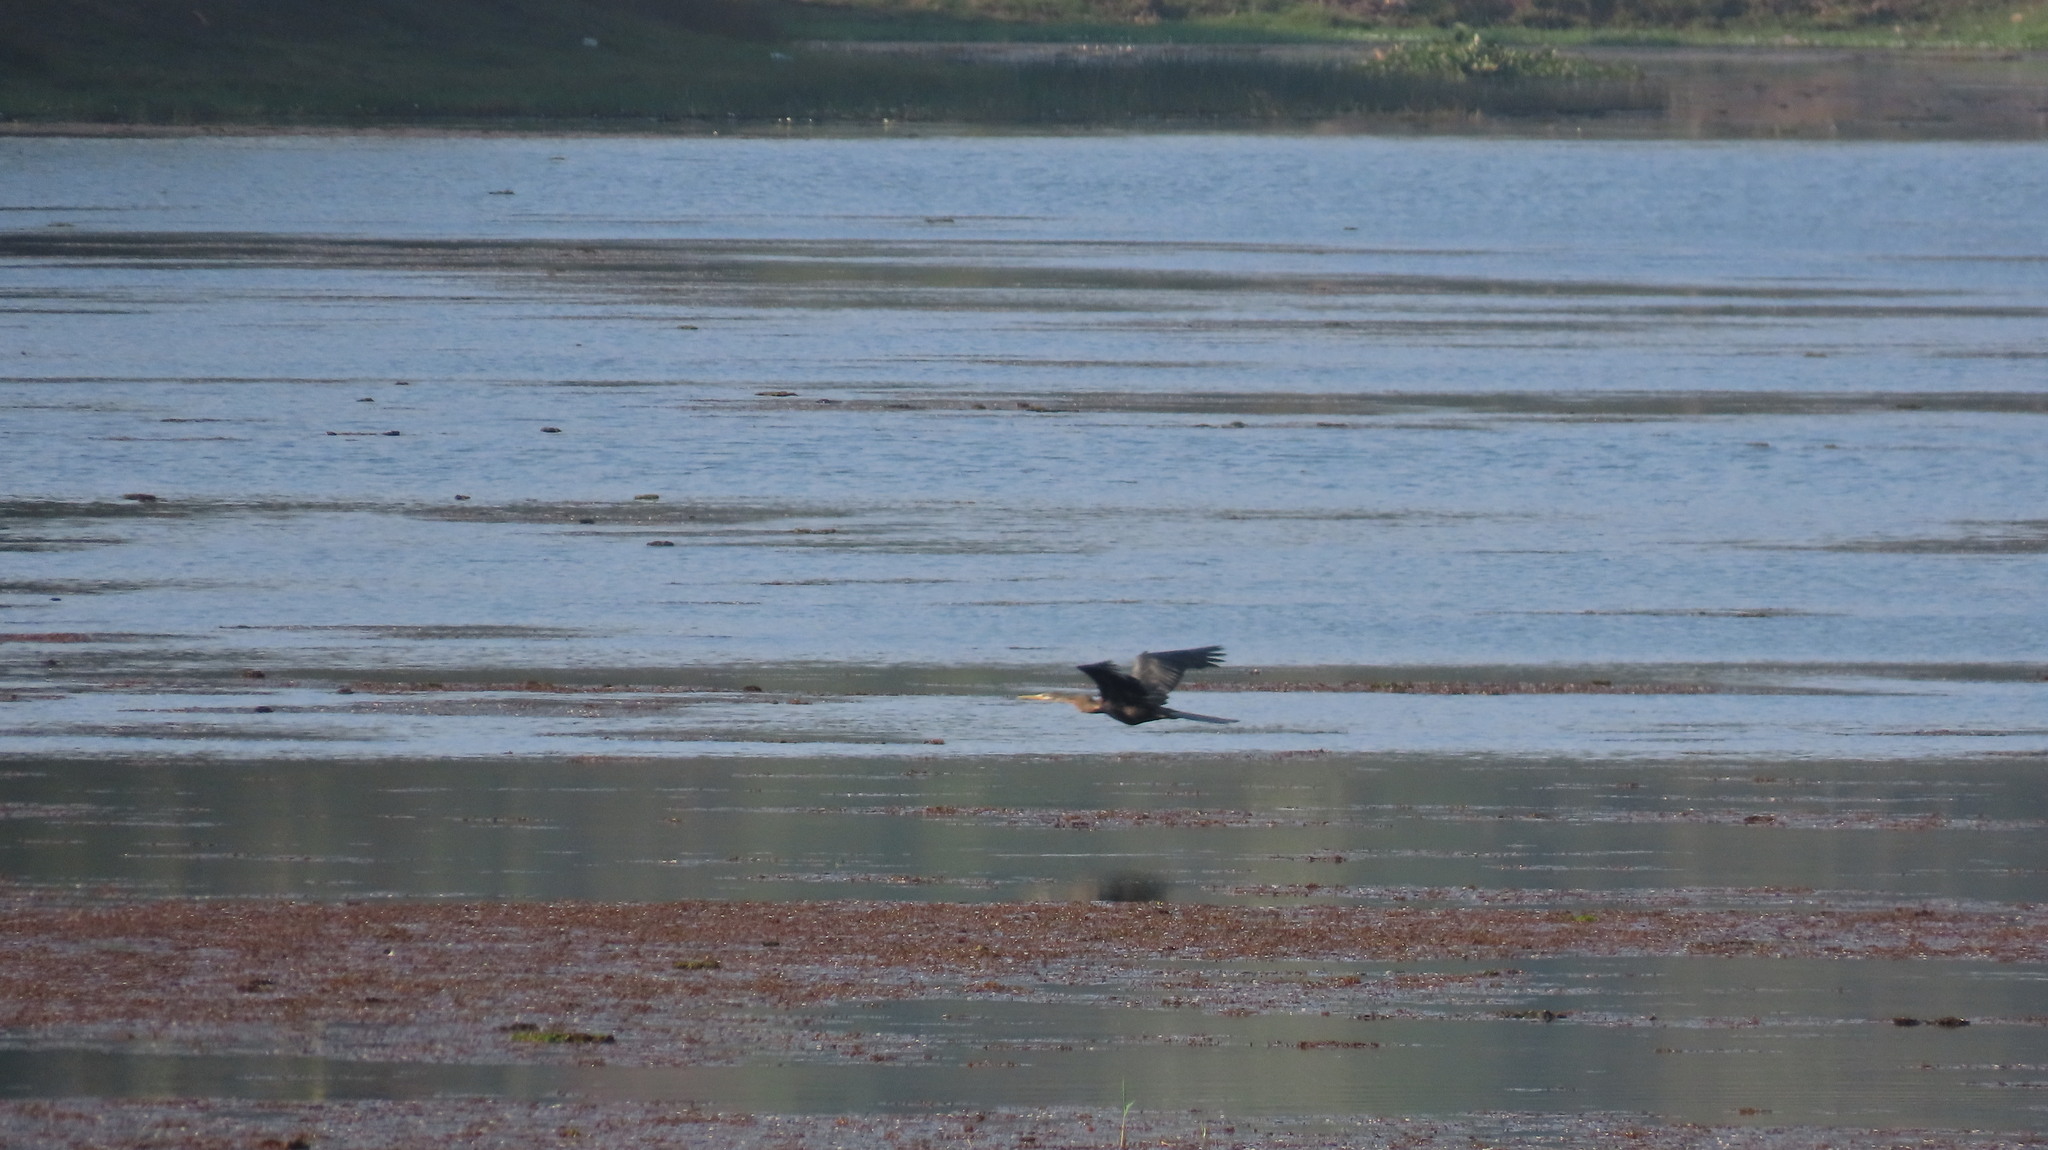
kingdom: Animalia
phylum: Chordata
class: Aves
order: Suliformes
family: Anhingidae
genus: Anhinga
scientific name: Anhinga melanogaster
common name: Oriental darter
